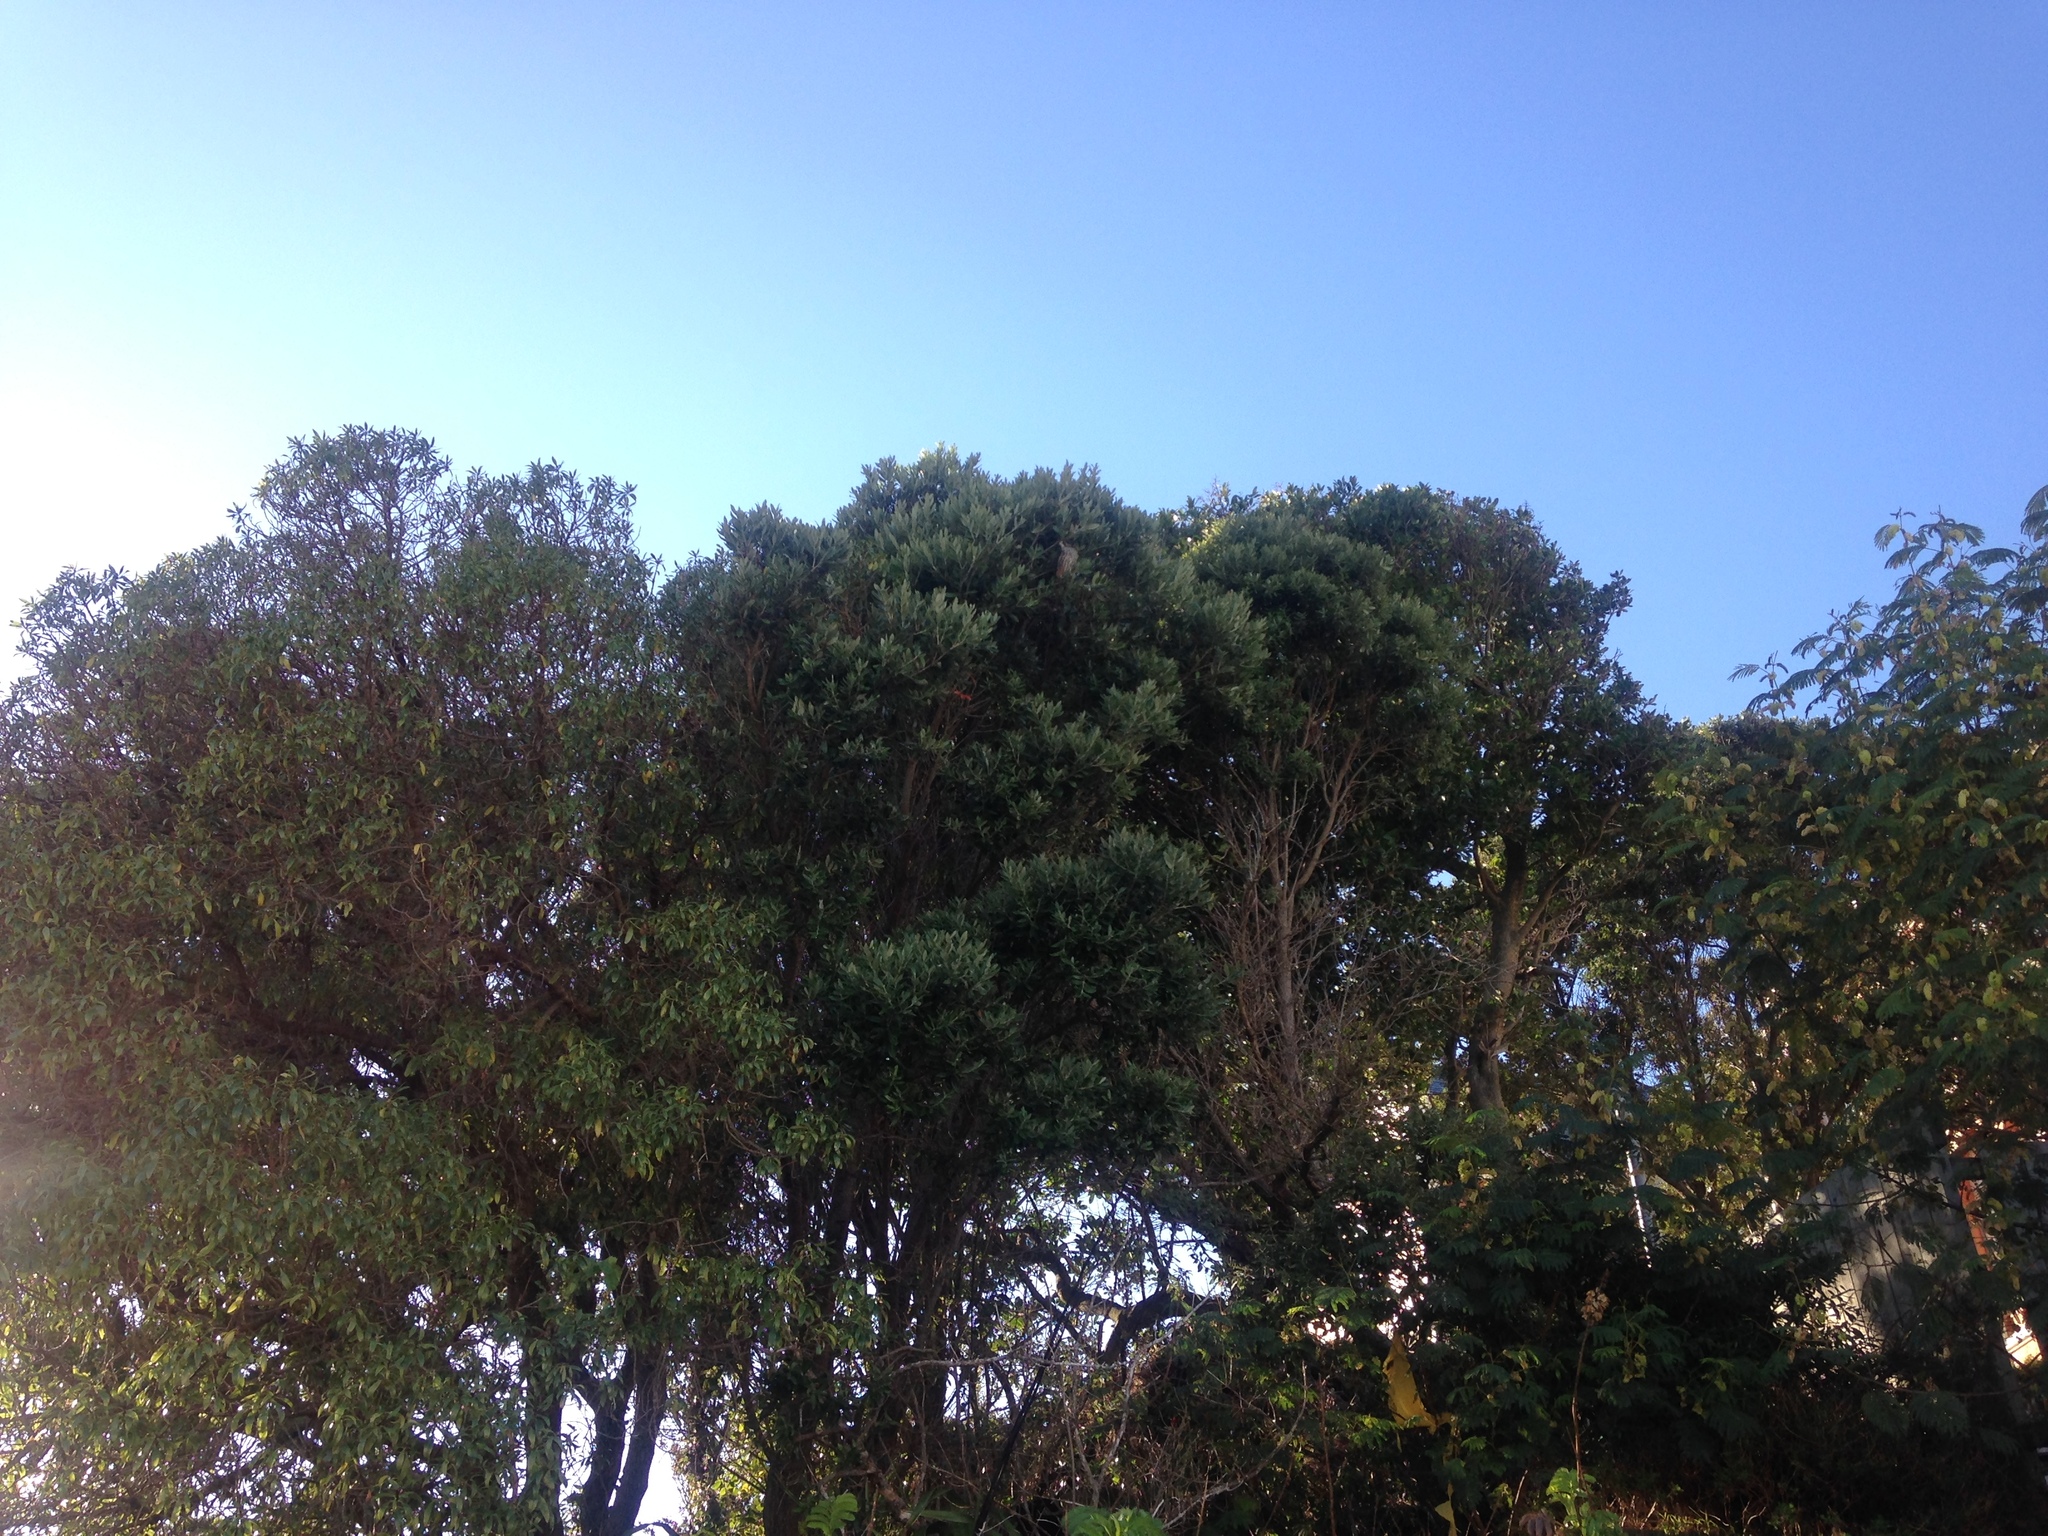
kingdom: Animalia
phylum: Chordata
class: Aves
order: Falconiformes
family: Falconidae
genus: Falco
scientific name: Falco novaeseelandiae
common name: New zealand falcon
